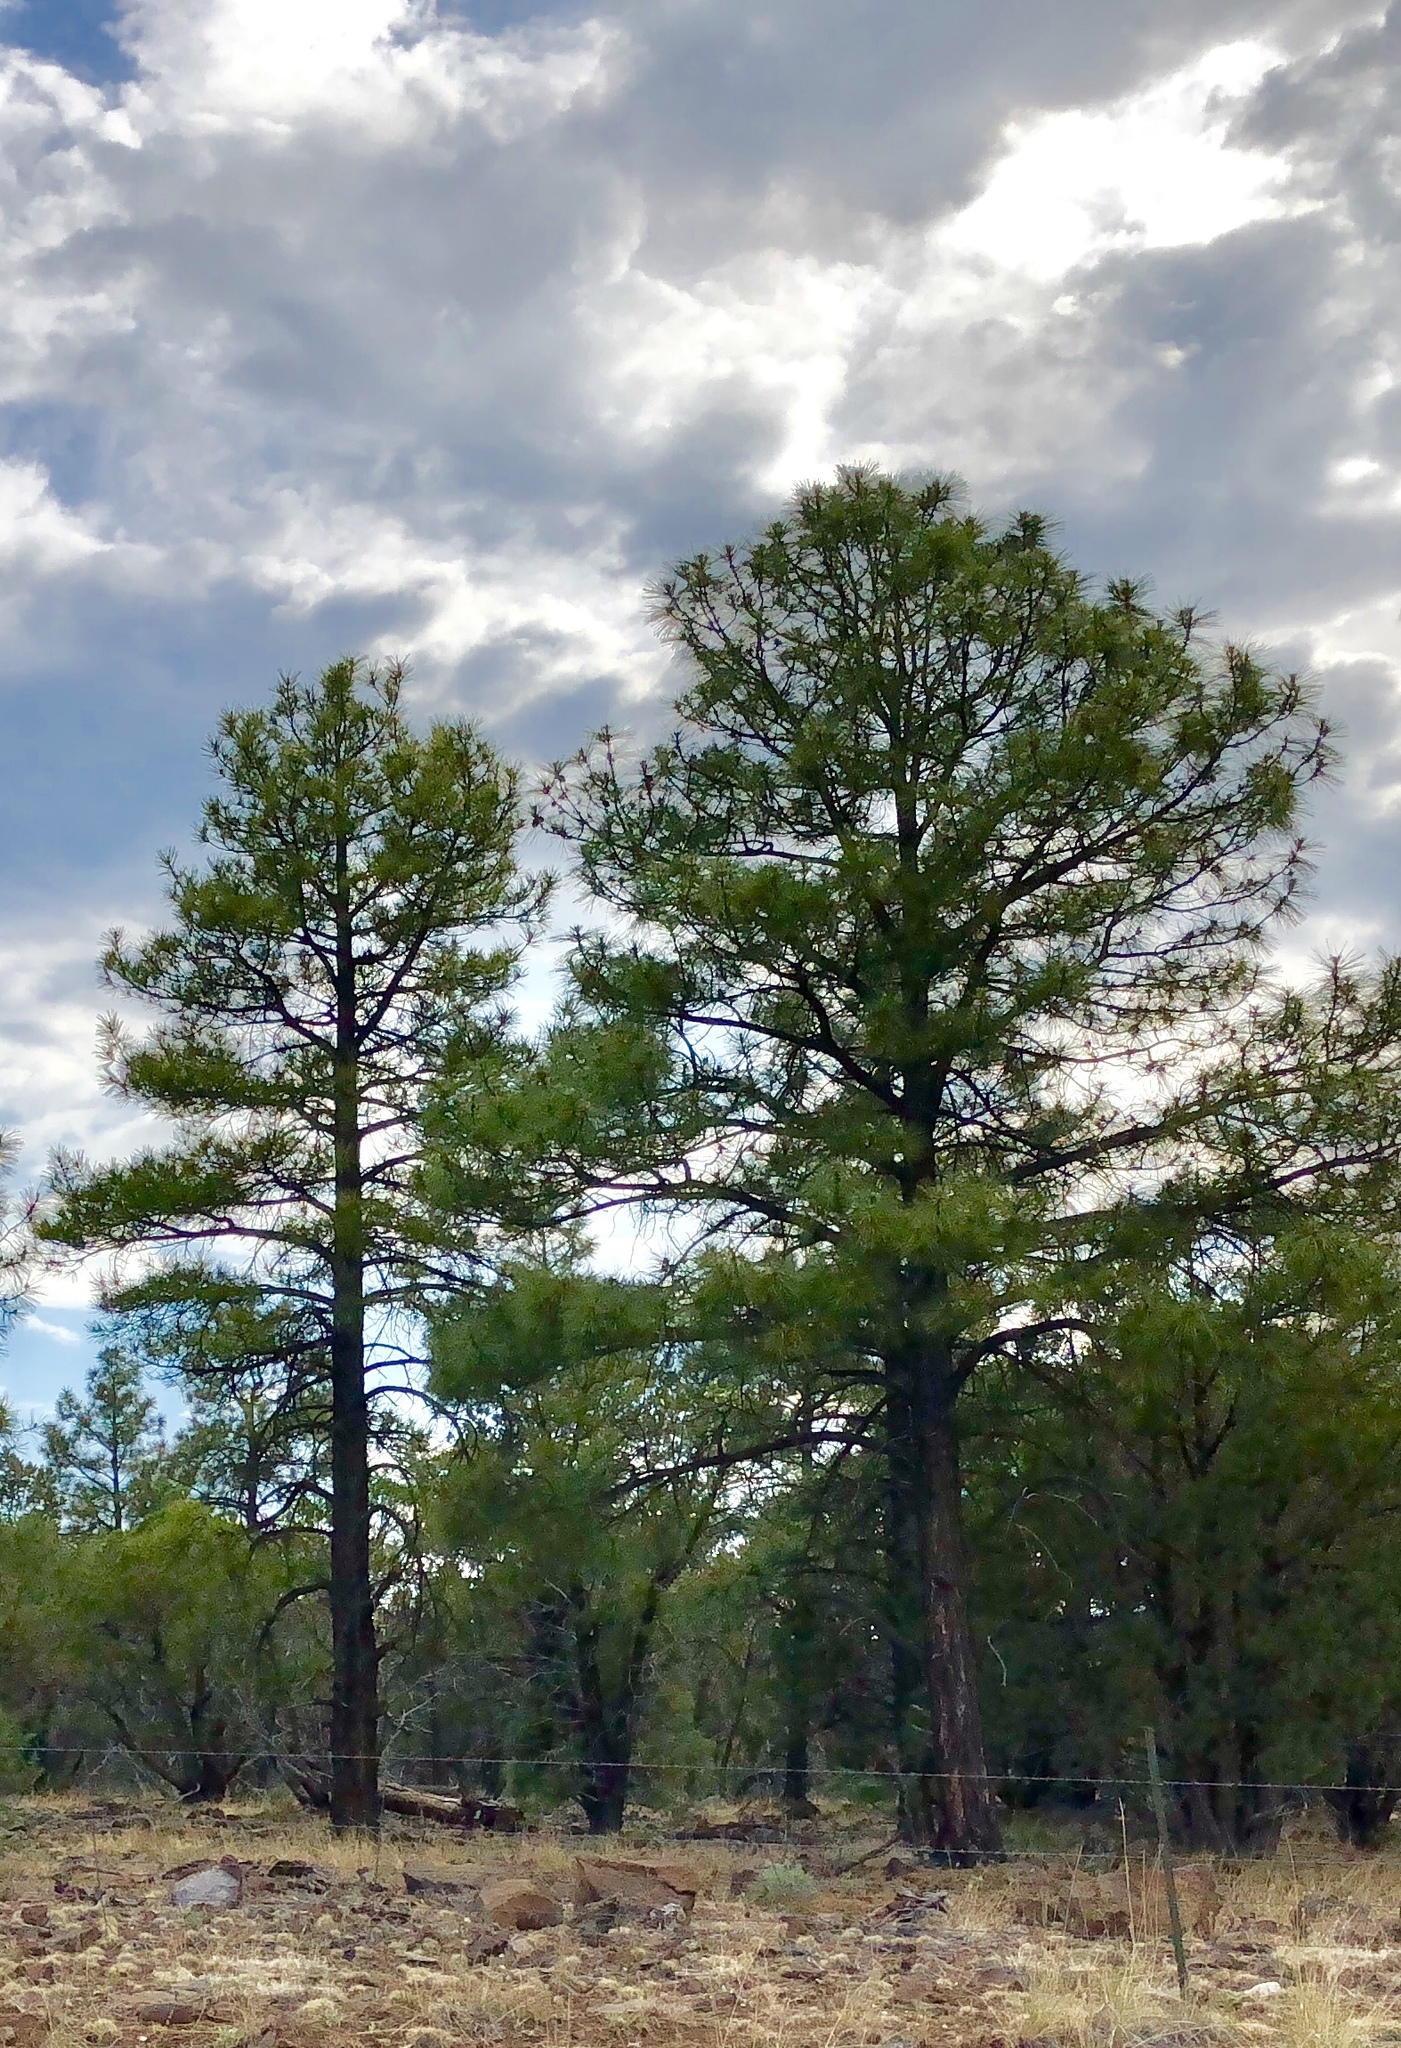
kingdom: Plantae
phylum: Tracheophyta
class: Pinopsida
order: Pinales
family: Pinaceae
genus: Pinus
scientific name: Pinus ponderosa
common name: Western yellow-pine
